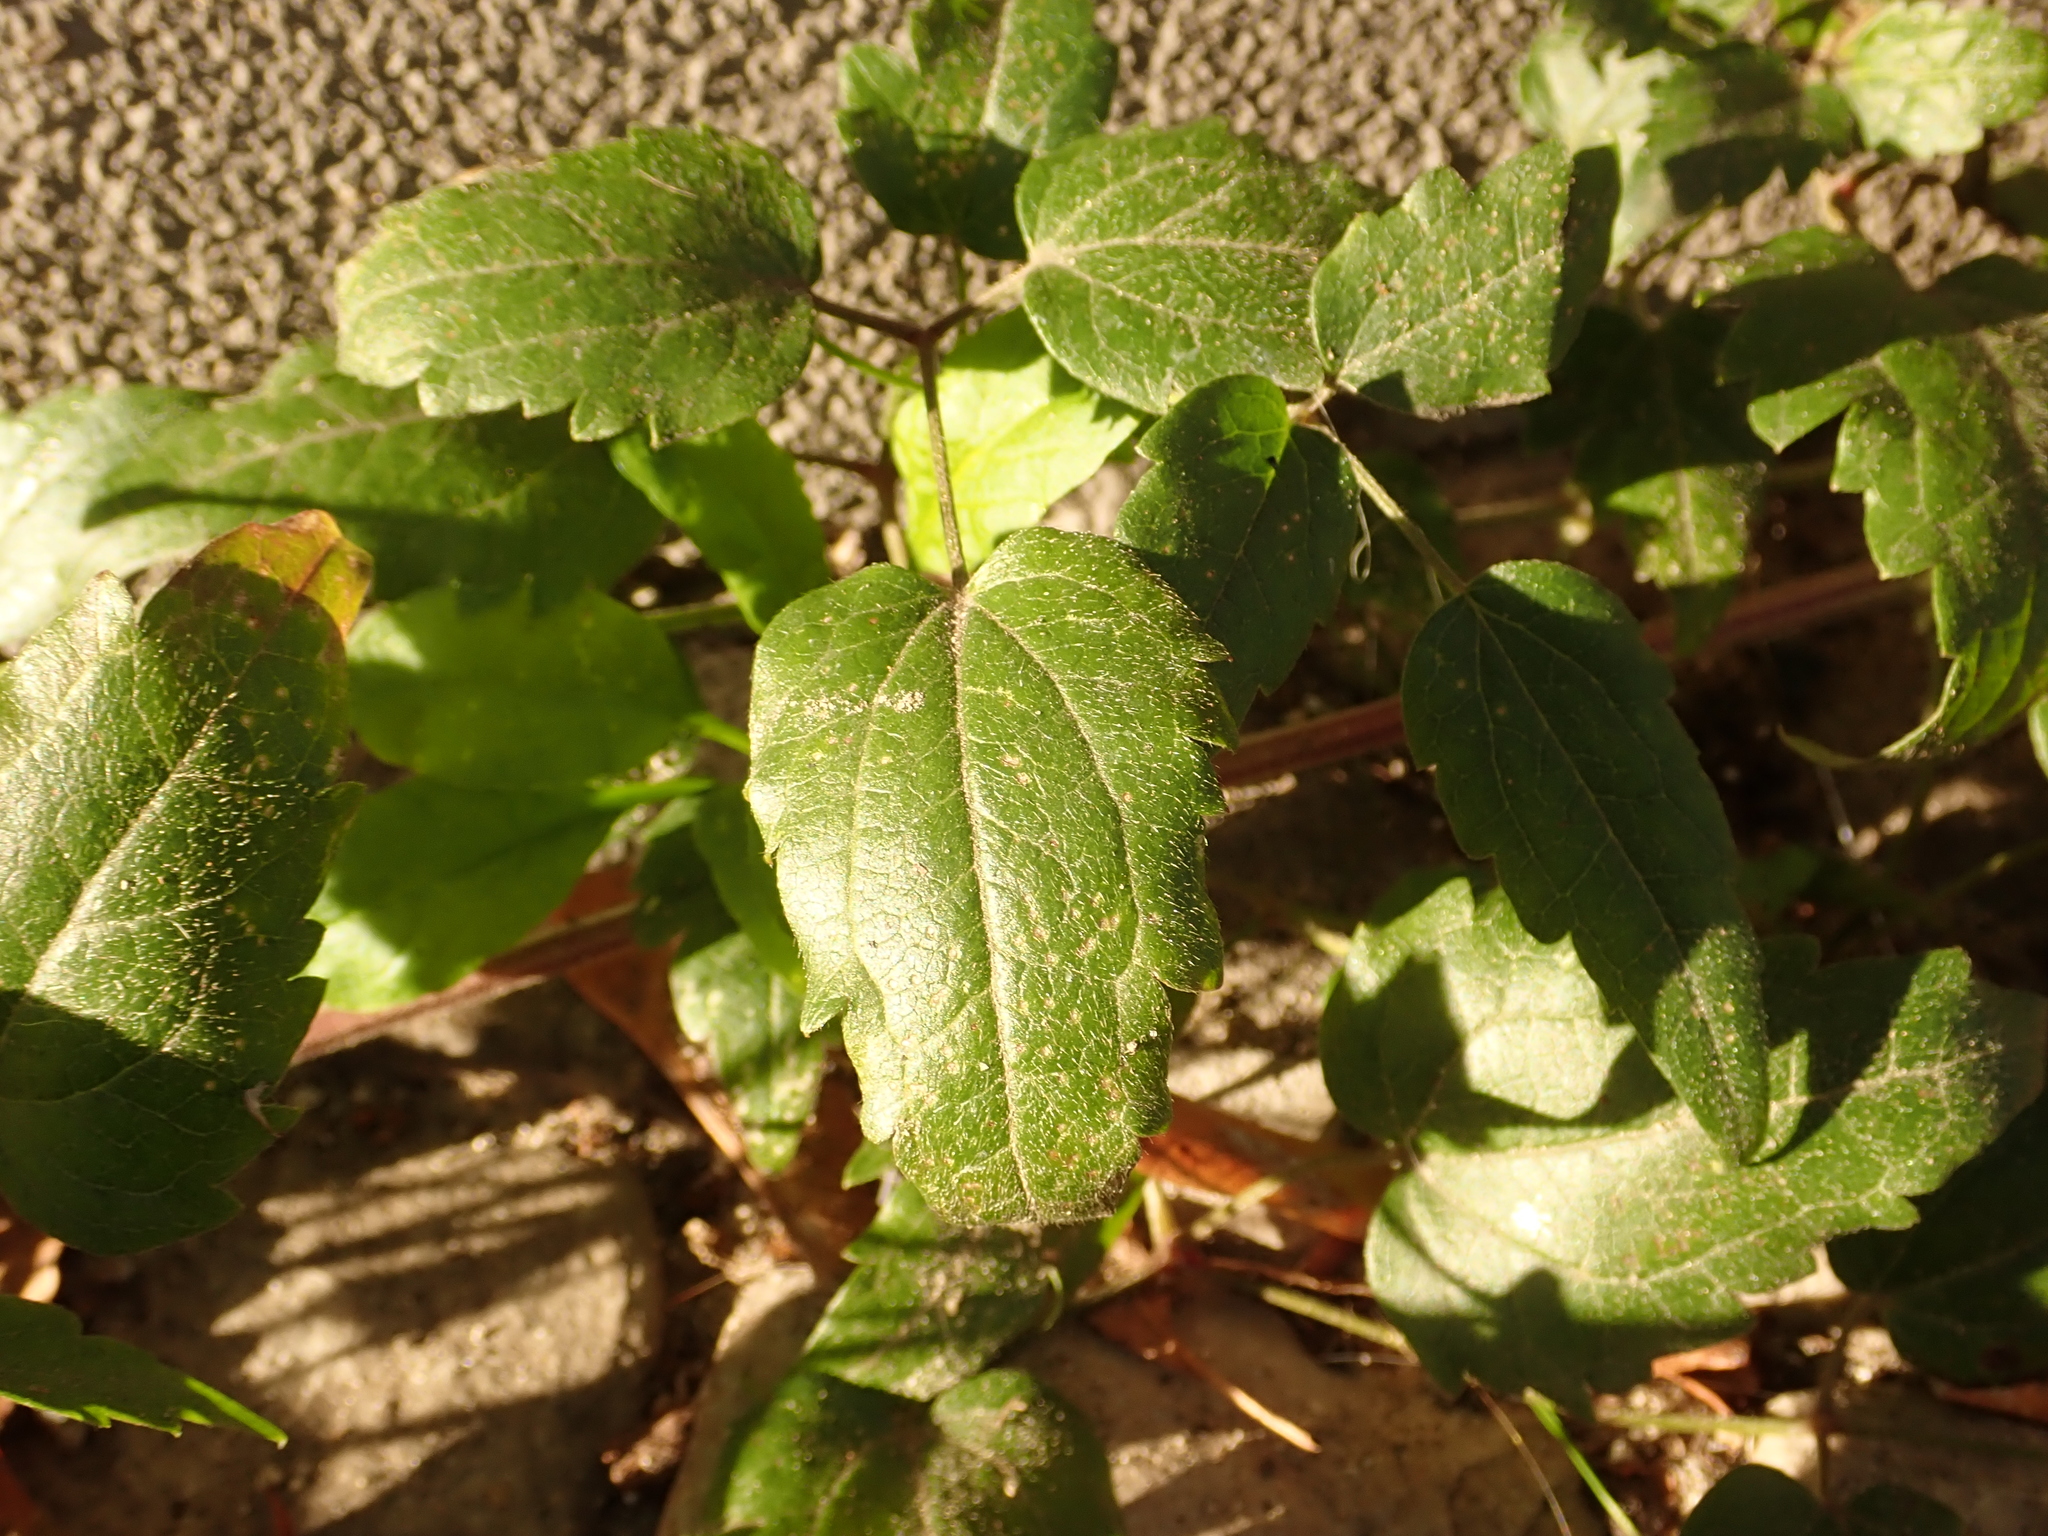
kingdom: Plantae
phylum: Tracheophyta
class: Magnoliopsida
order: Ranunculales
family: Ranunculaceae
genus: Clematis
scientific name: Clematis vitalba
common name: Evergreen clematis
